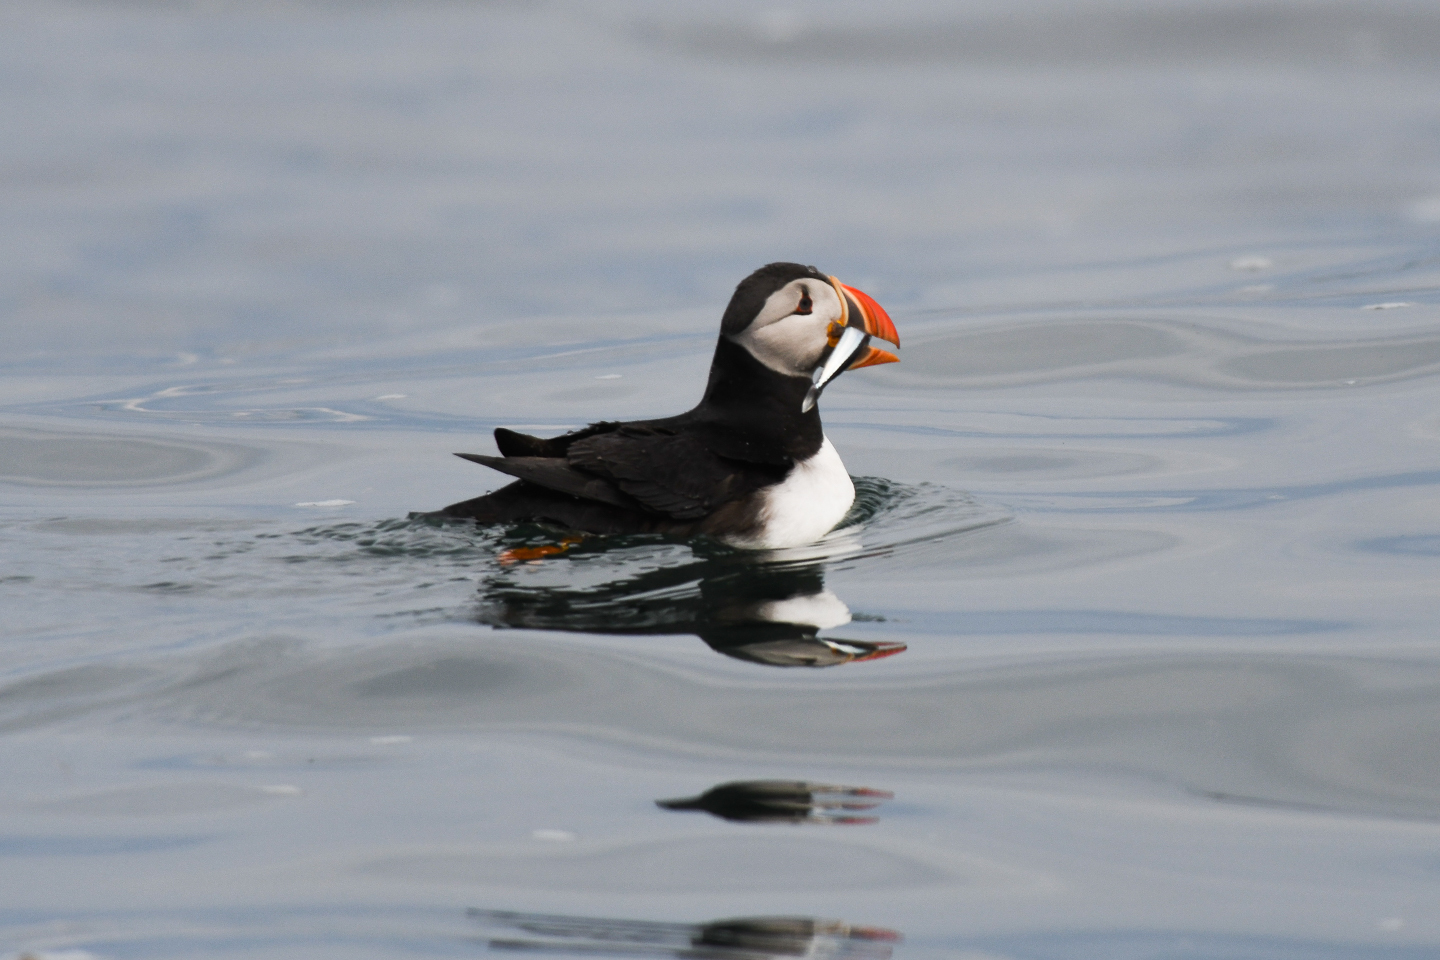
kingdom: Animalia
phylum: Chordata
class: Aves
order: Charadriiformes
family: Alcidae
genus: Fratercula
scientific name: Fratercula arctica
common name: Atlantic puffin
